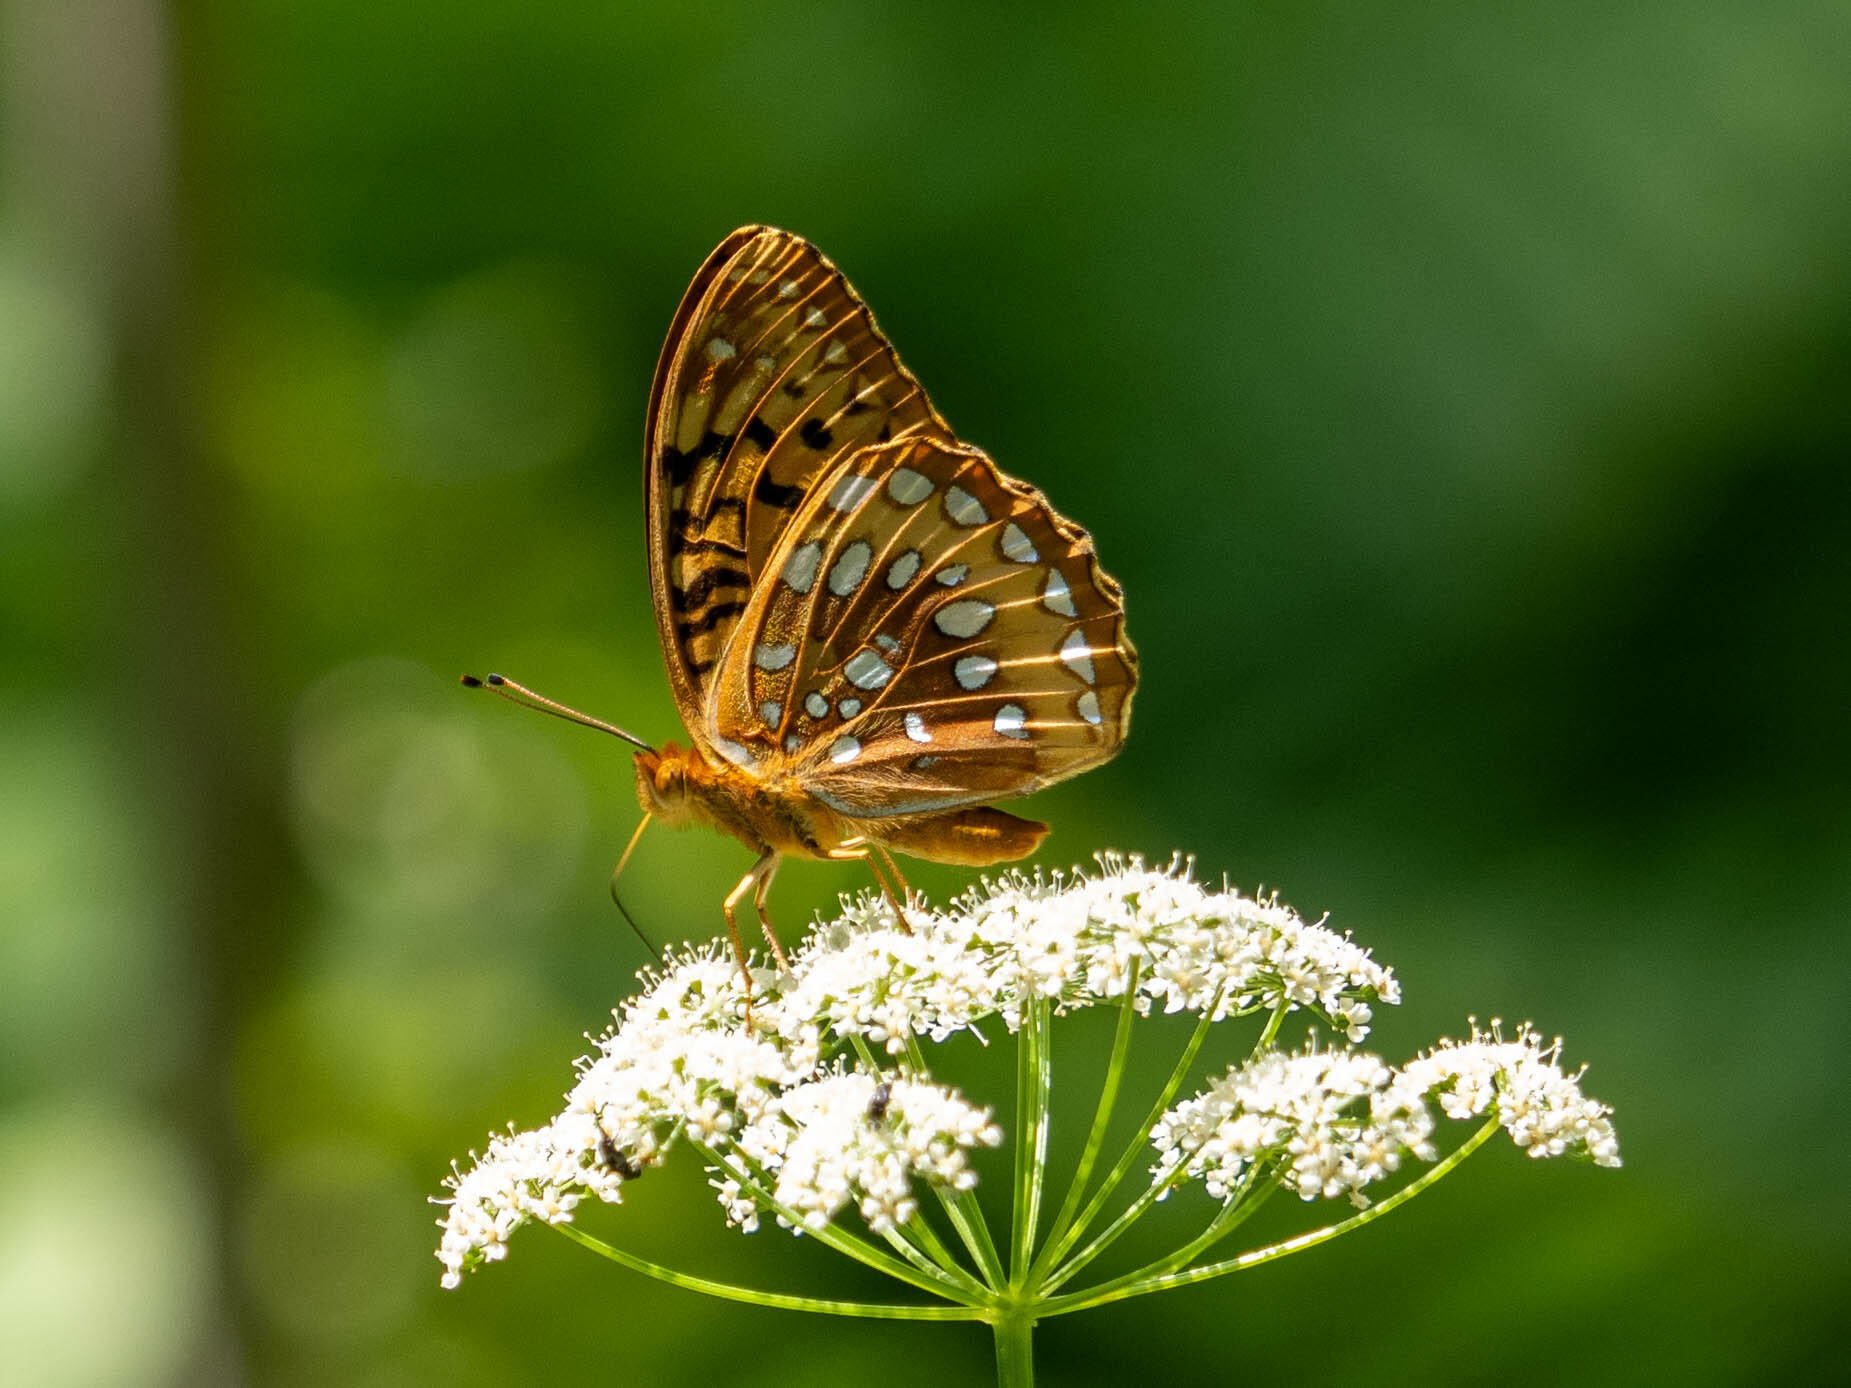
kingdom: Animalia
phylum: Arthropoda
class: Insecta
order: Lepidoptera
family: Nymphalidae
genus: Speyeria
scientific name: Speyeria cybele
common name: Great spangled fritillary
